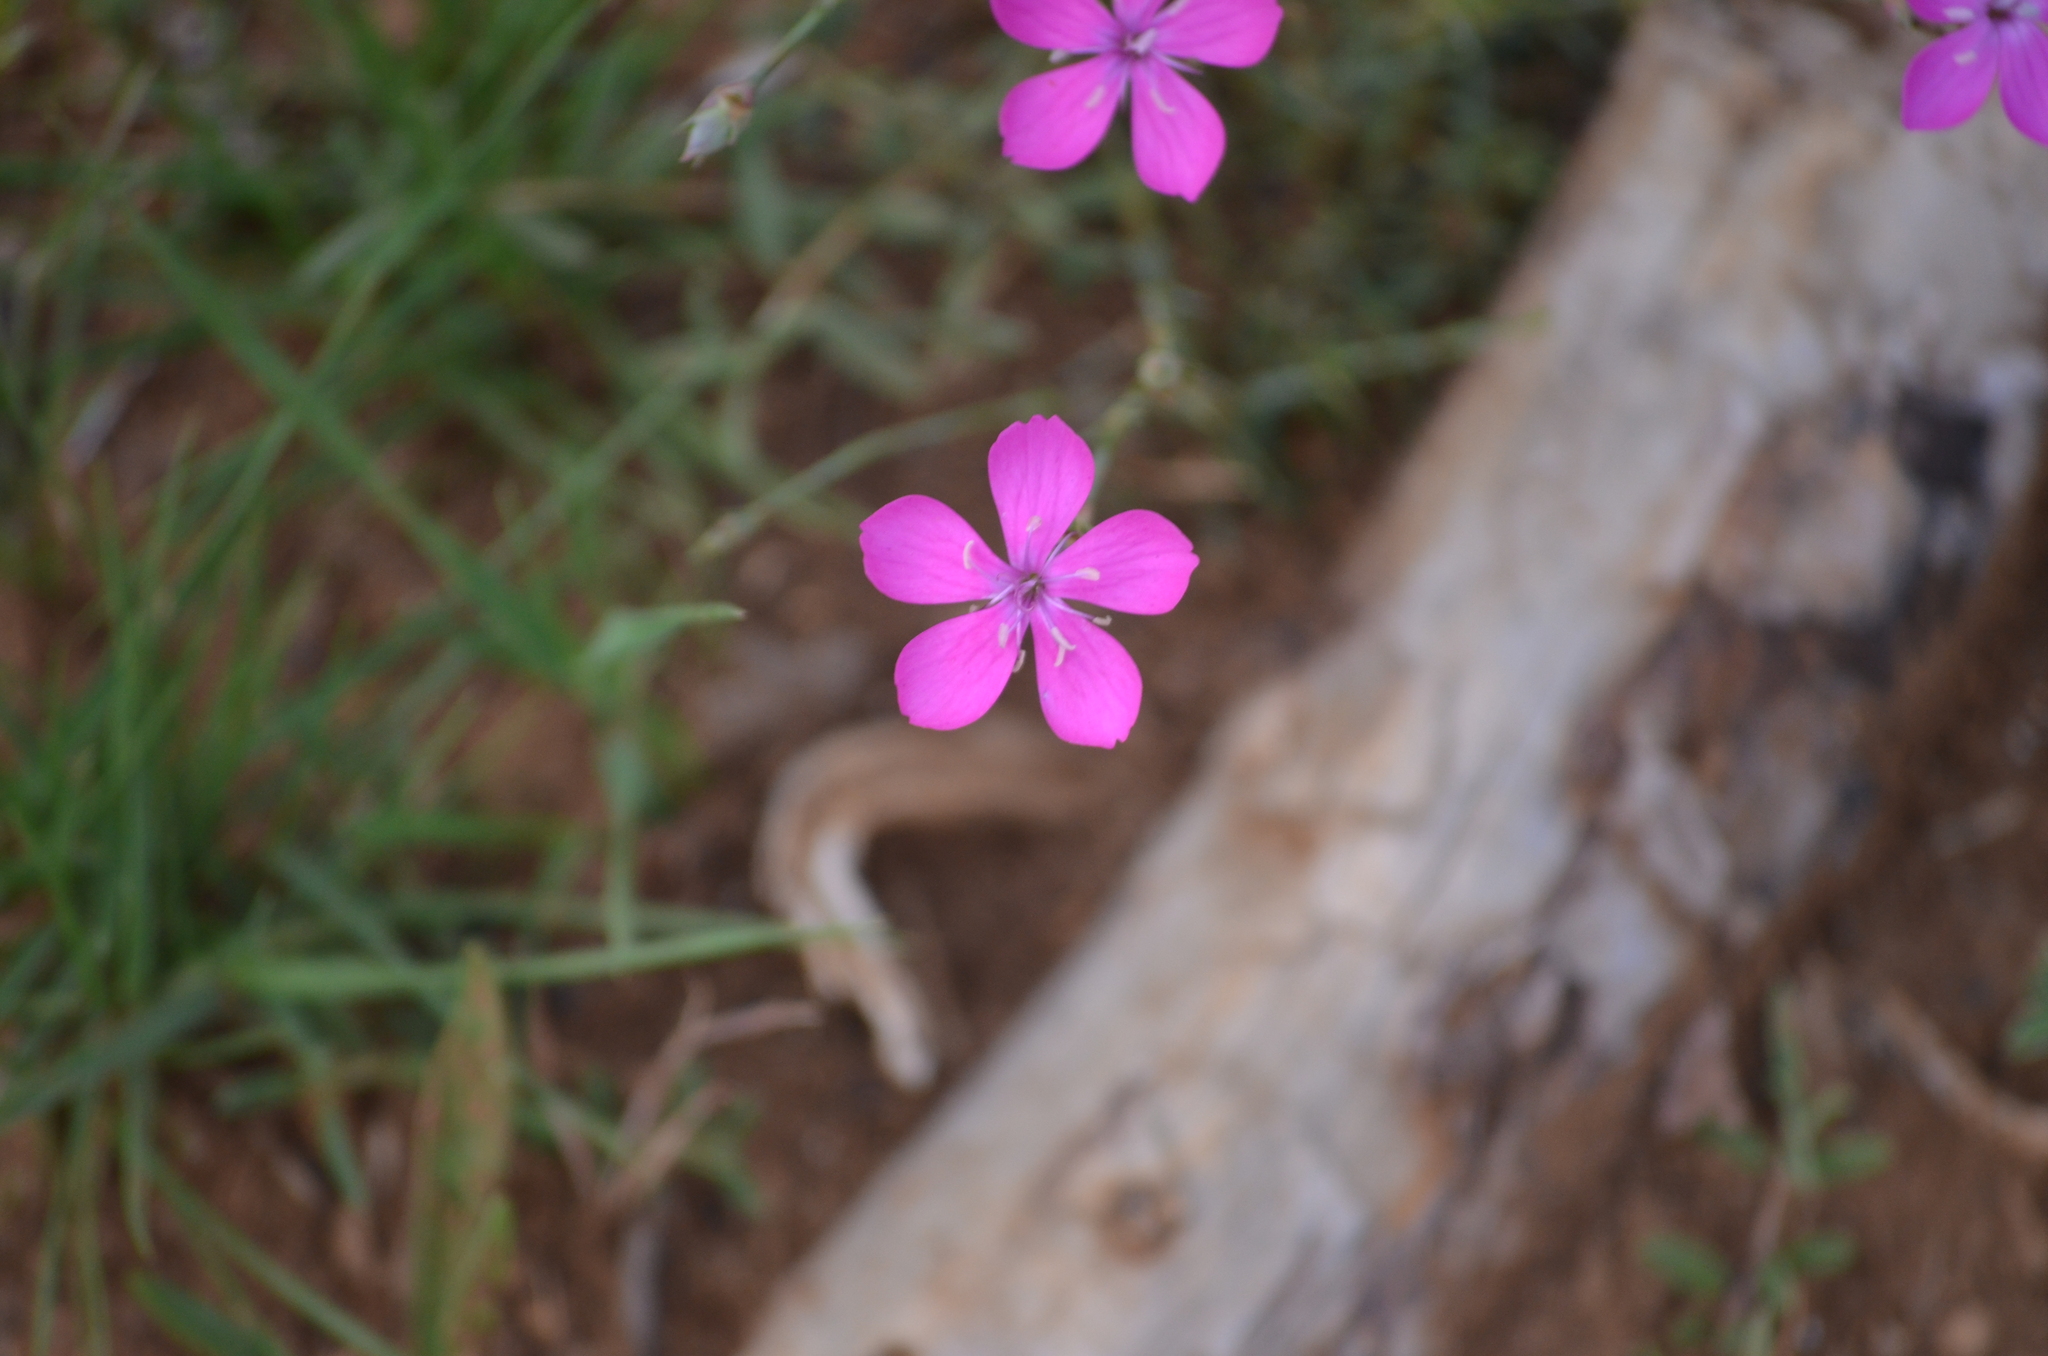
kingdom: Plantae
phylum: Tracheophyta
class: Magnoliopsida
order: Caryophyllales
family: Caryophyllaceae
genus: Dianthus
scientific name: Dianthus pungens
